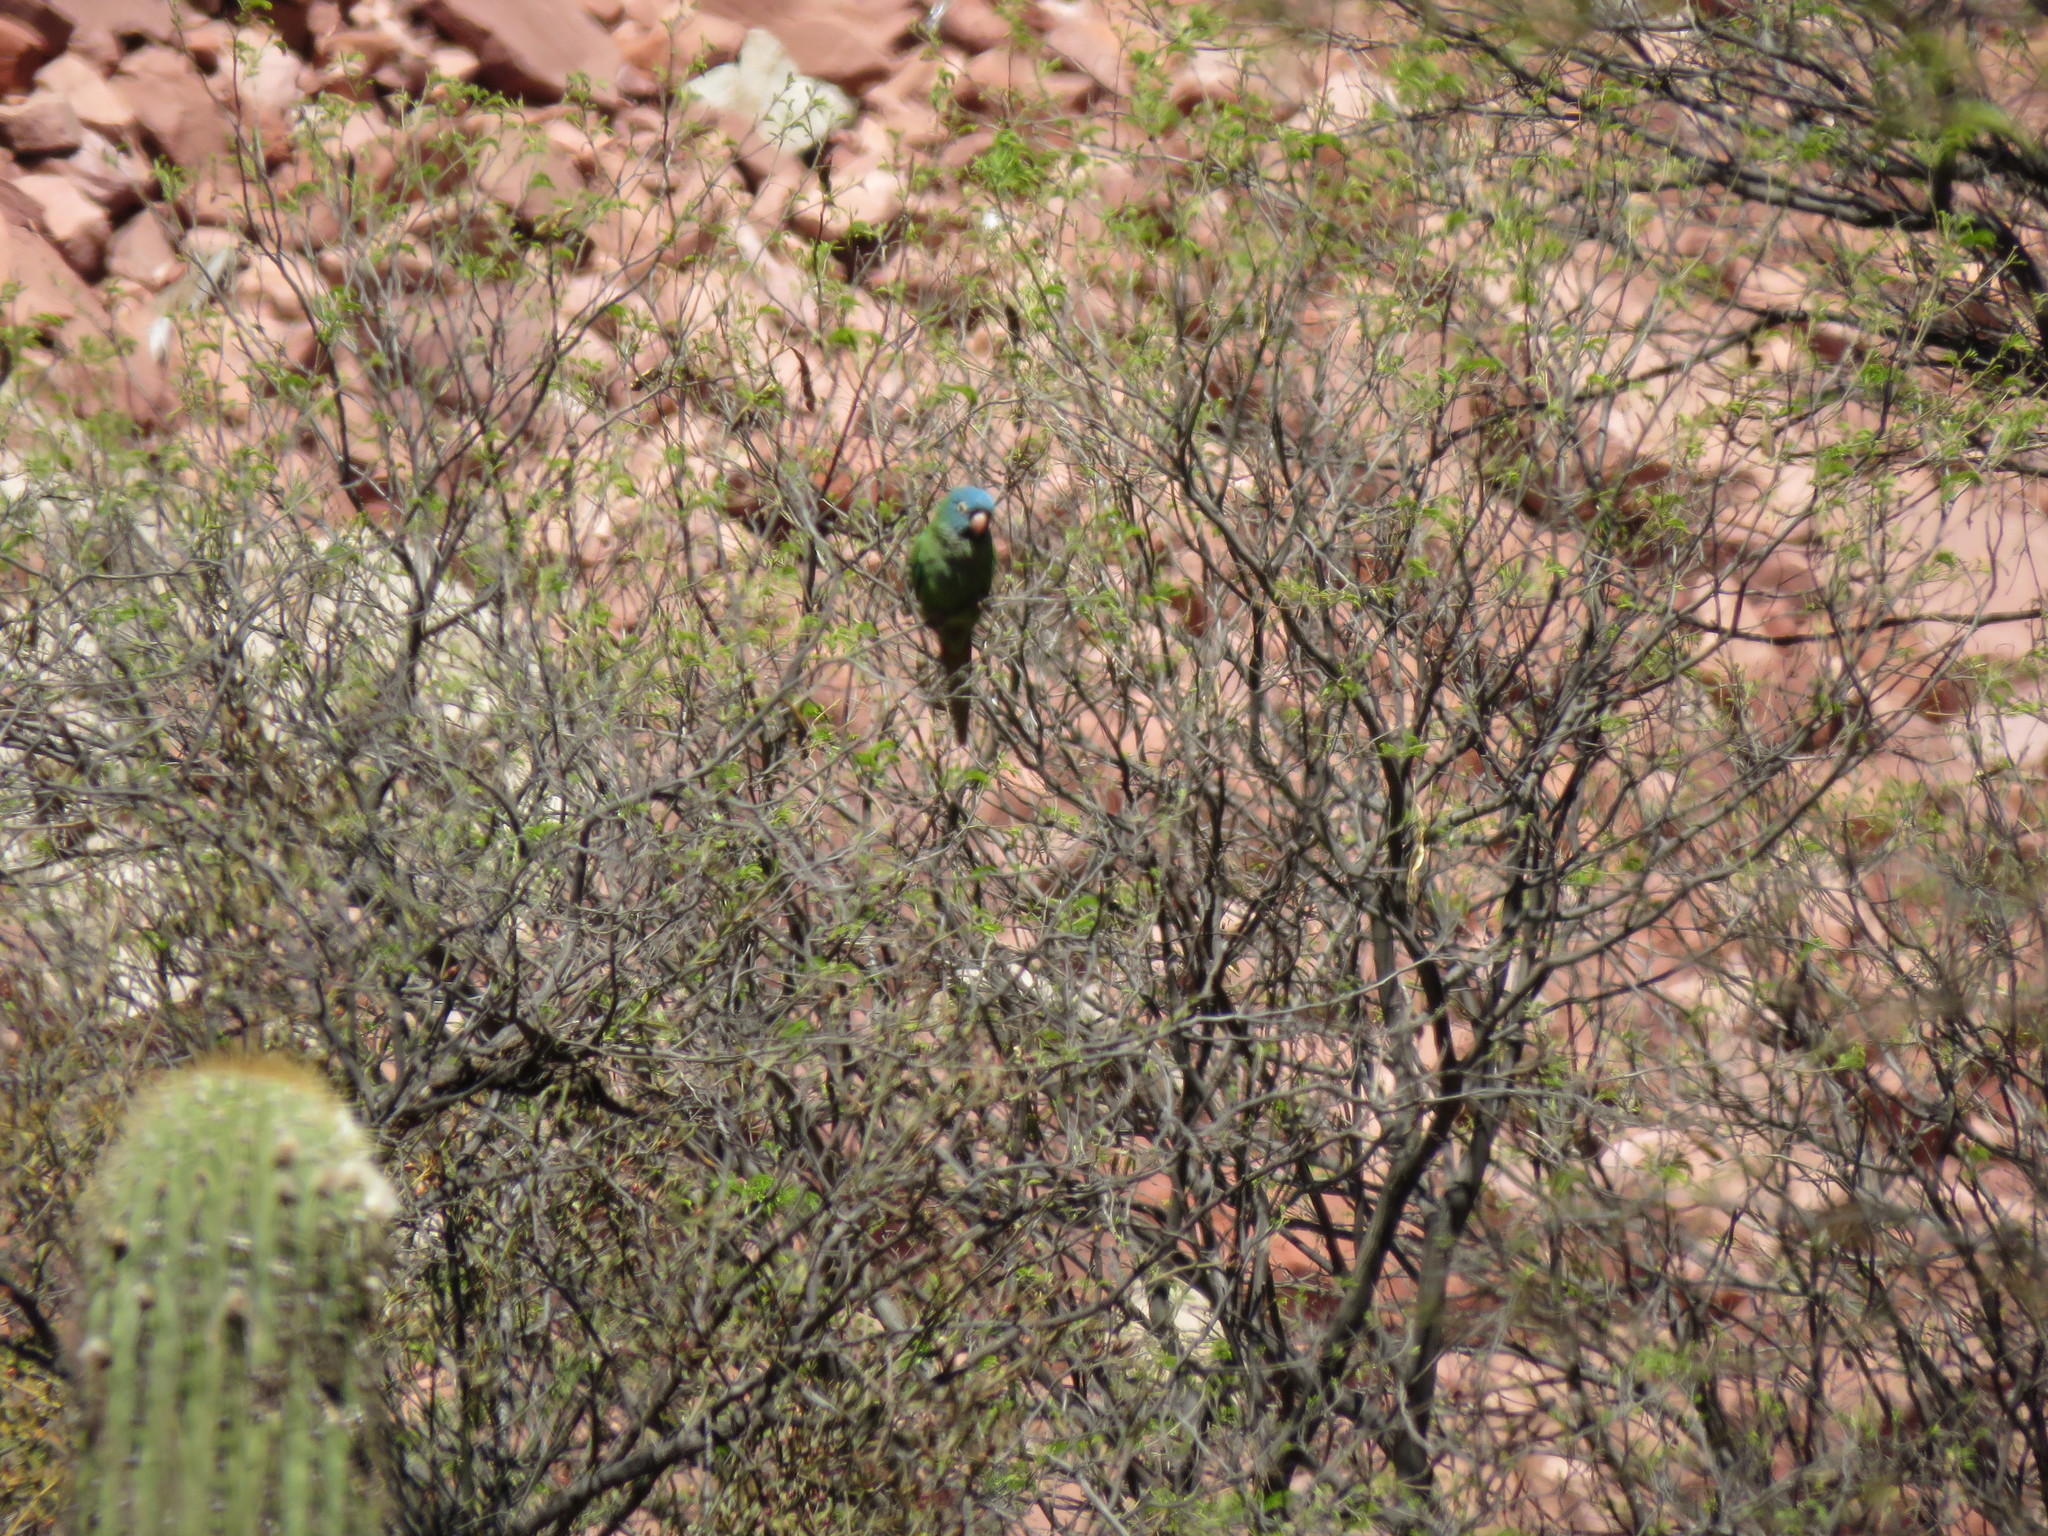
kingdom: Animalia
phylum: Chordata
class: Aves
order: Psittaciformes
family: Psittacidae
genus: Aratinga
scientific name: Aratinga acuticaudata
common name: Blue-crowned parakeet
